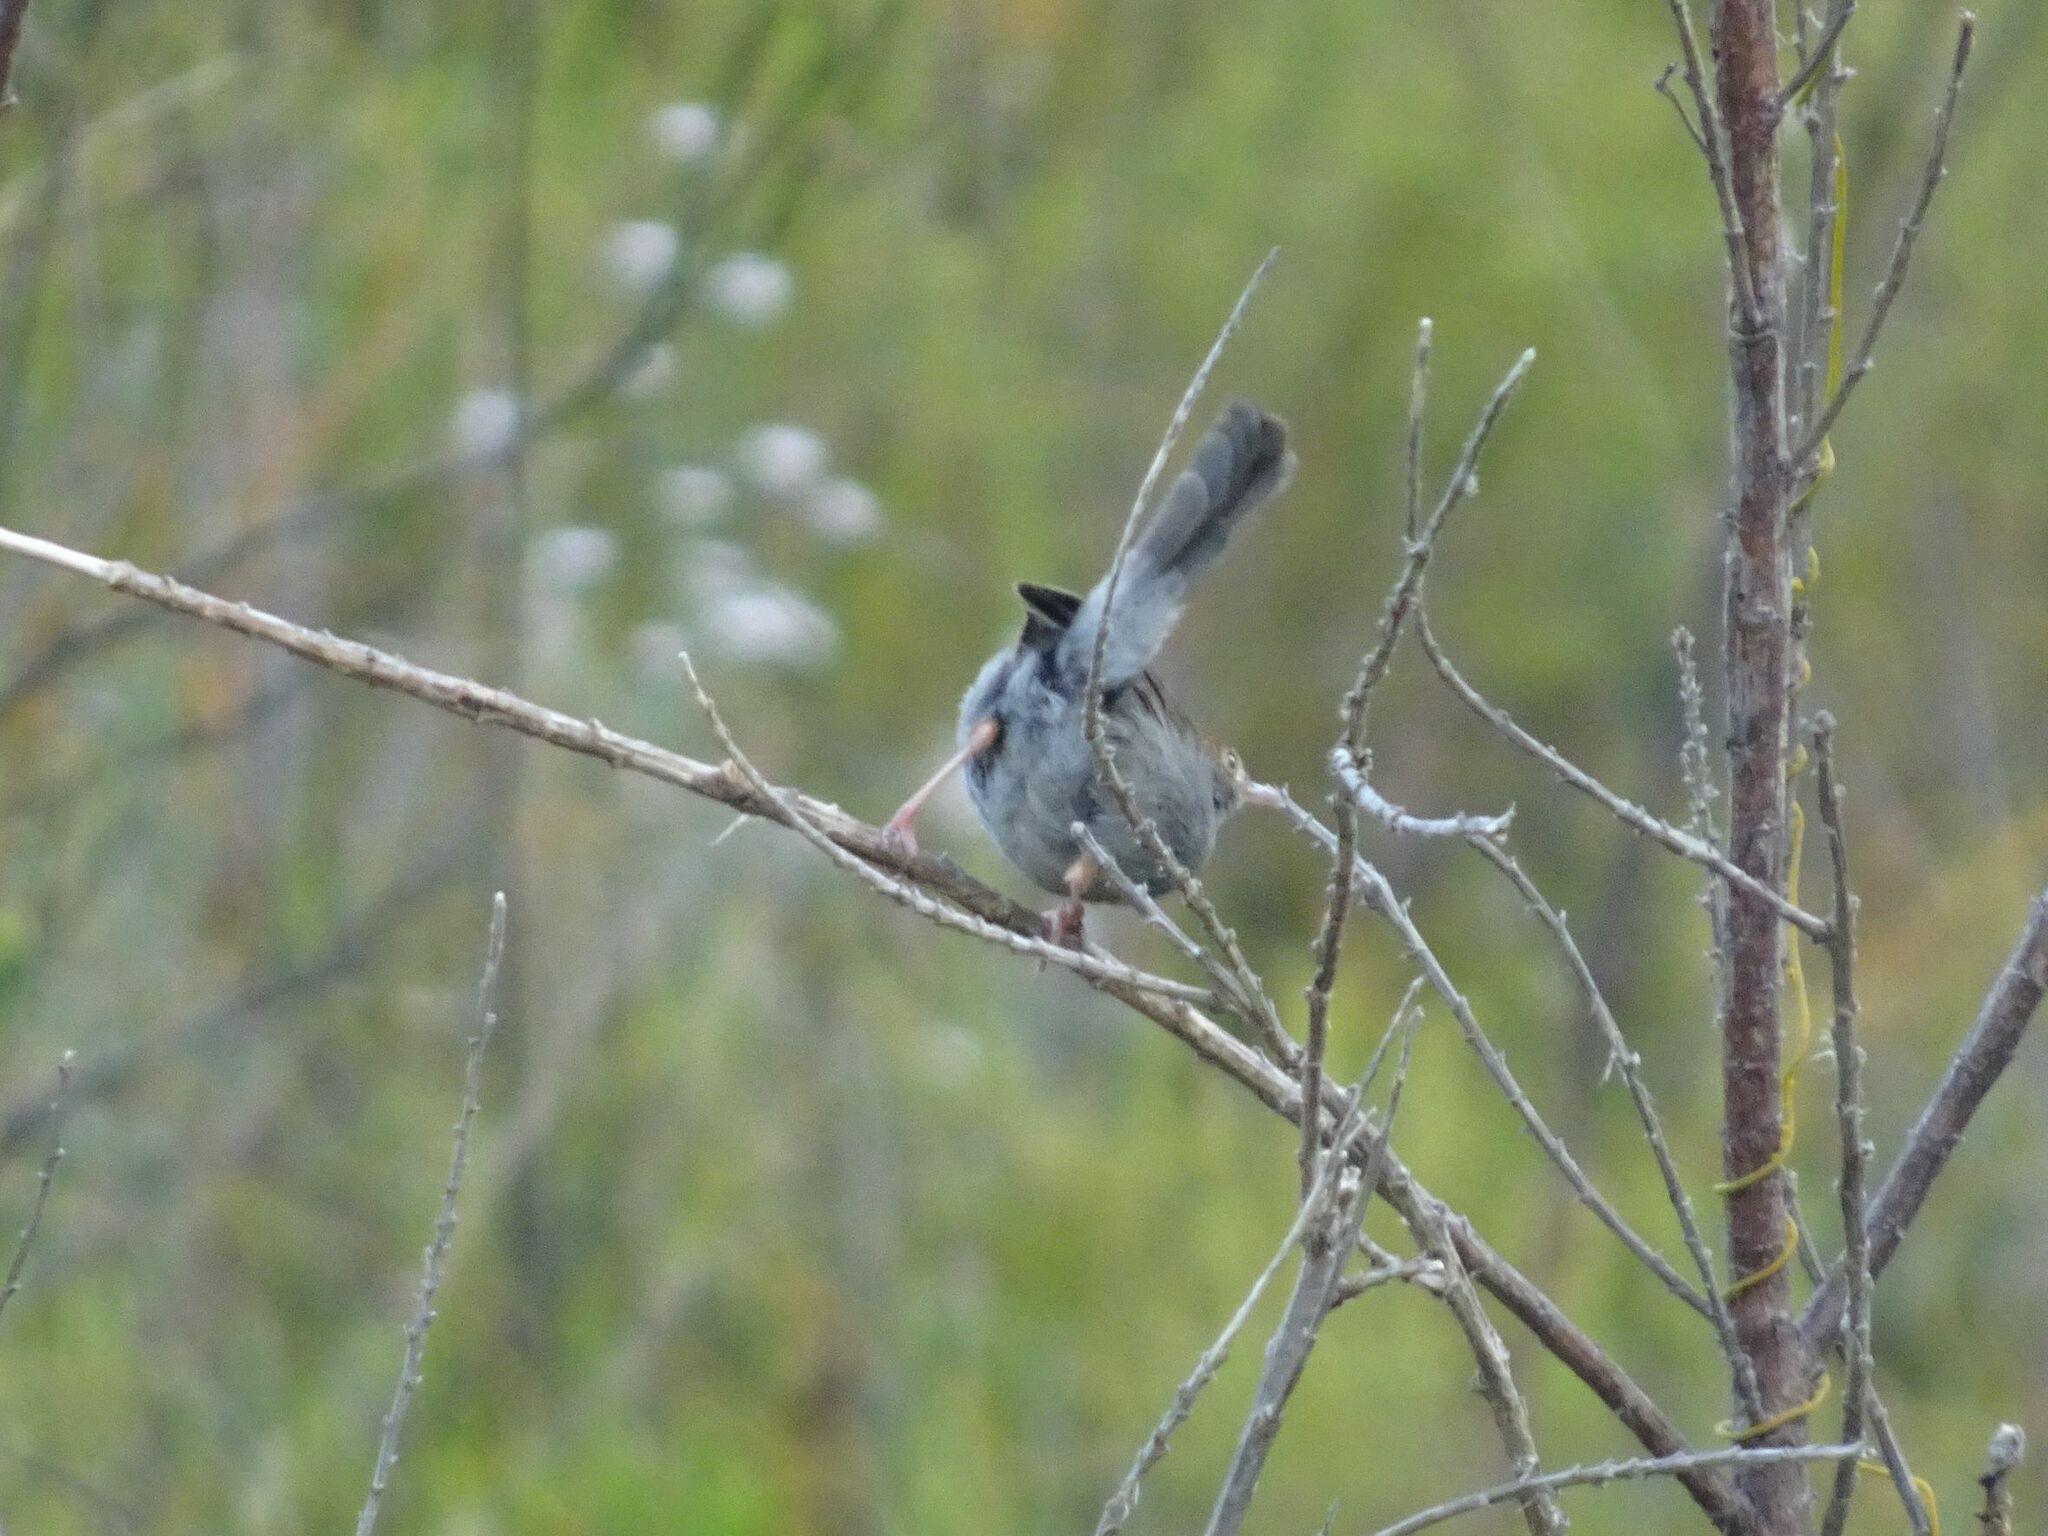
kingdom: Animalia
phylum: Chordata
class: Aves
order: Passeriformes
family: Cisticolidae
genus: Cisticola
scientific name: Cisticola fulvicapilla
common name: Neddicky
